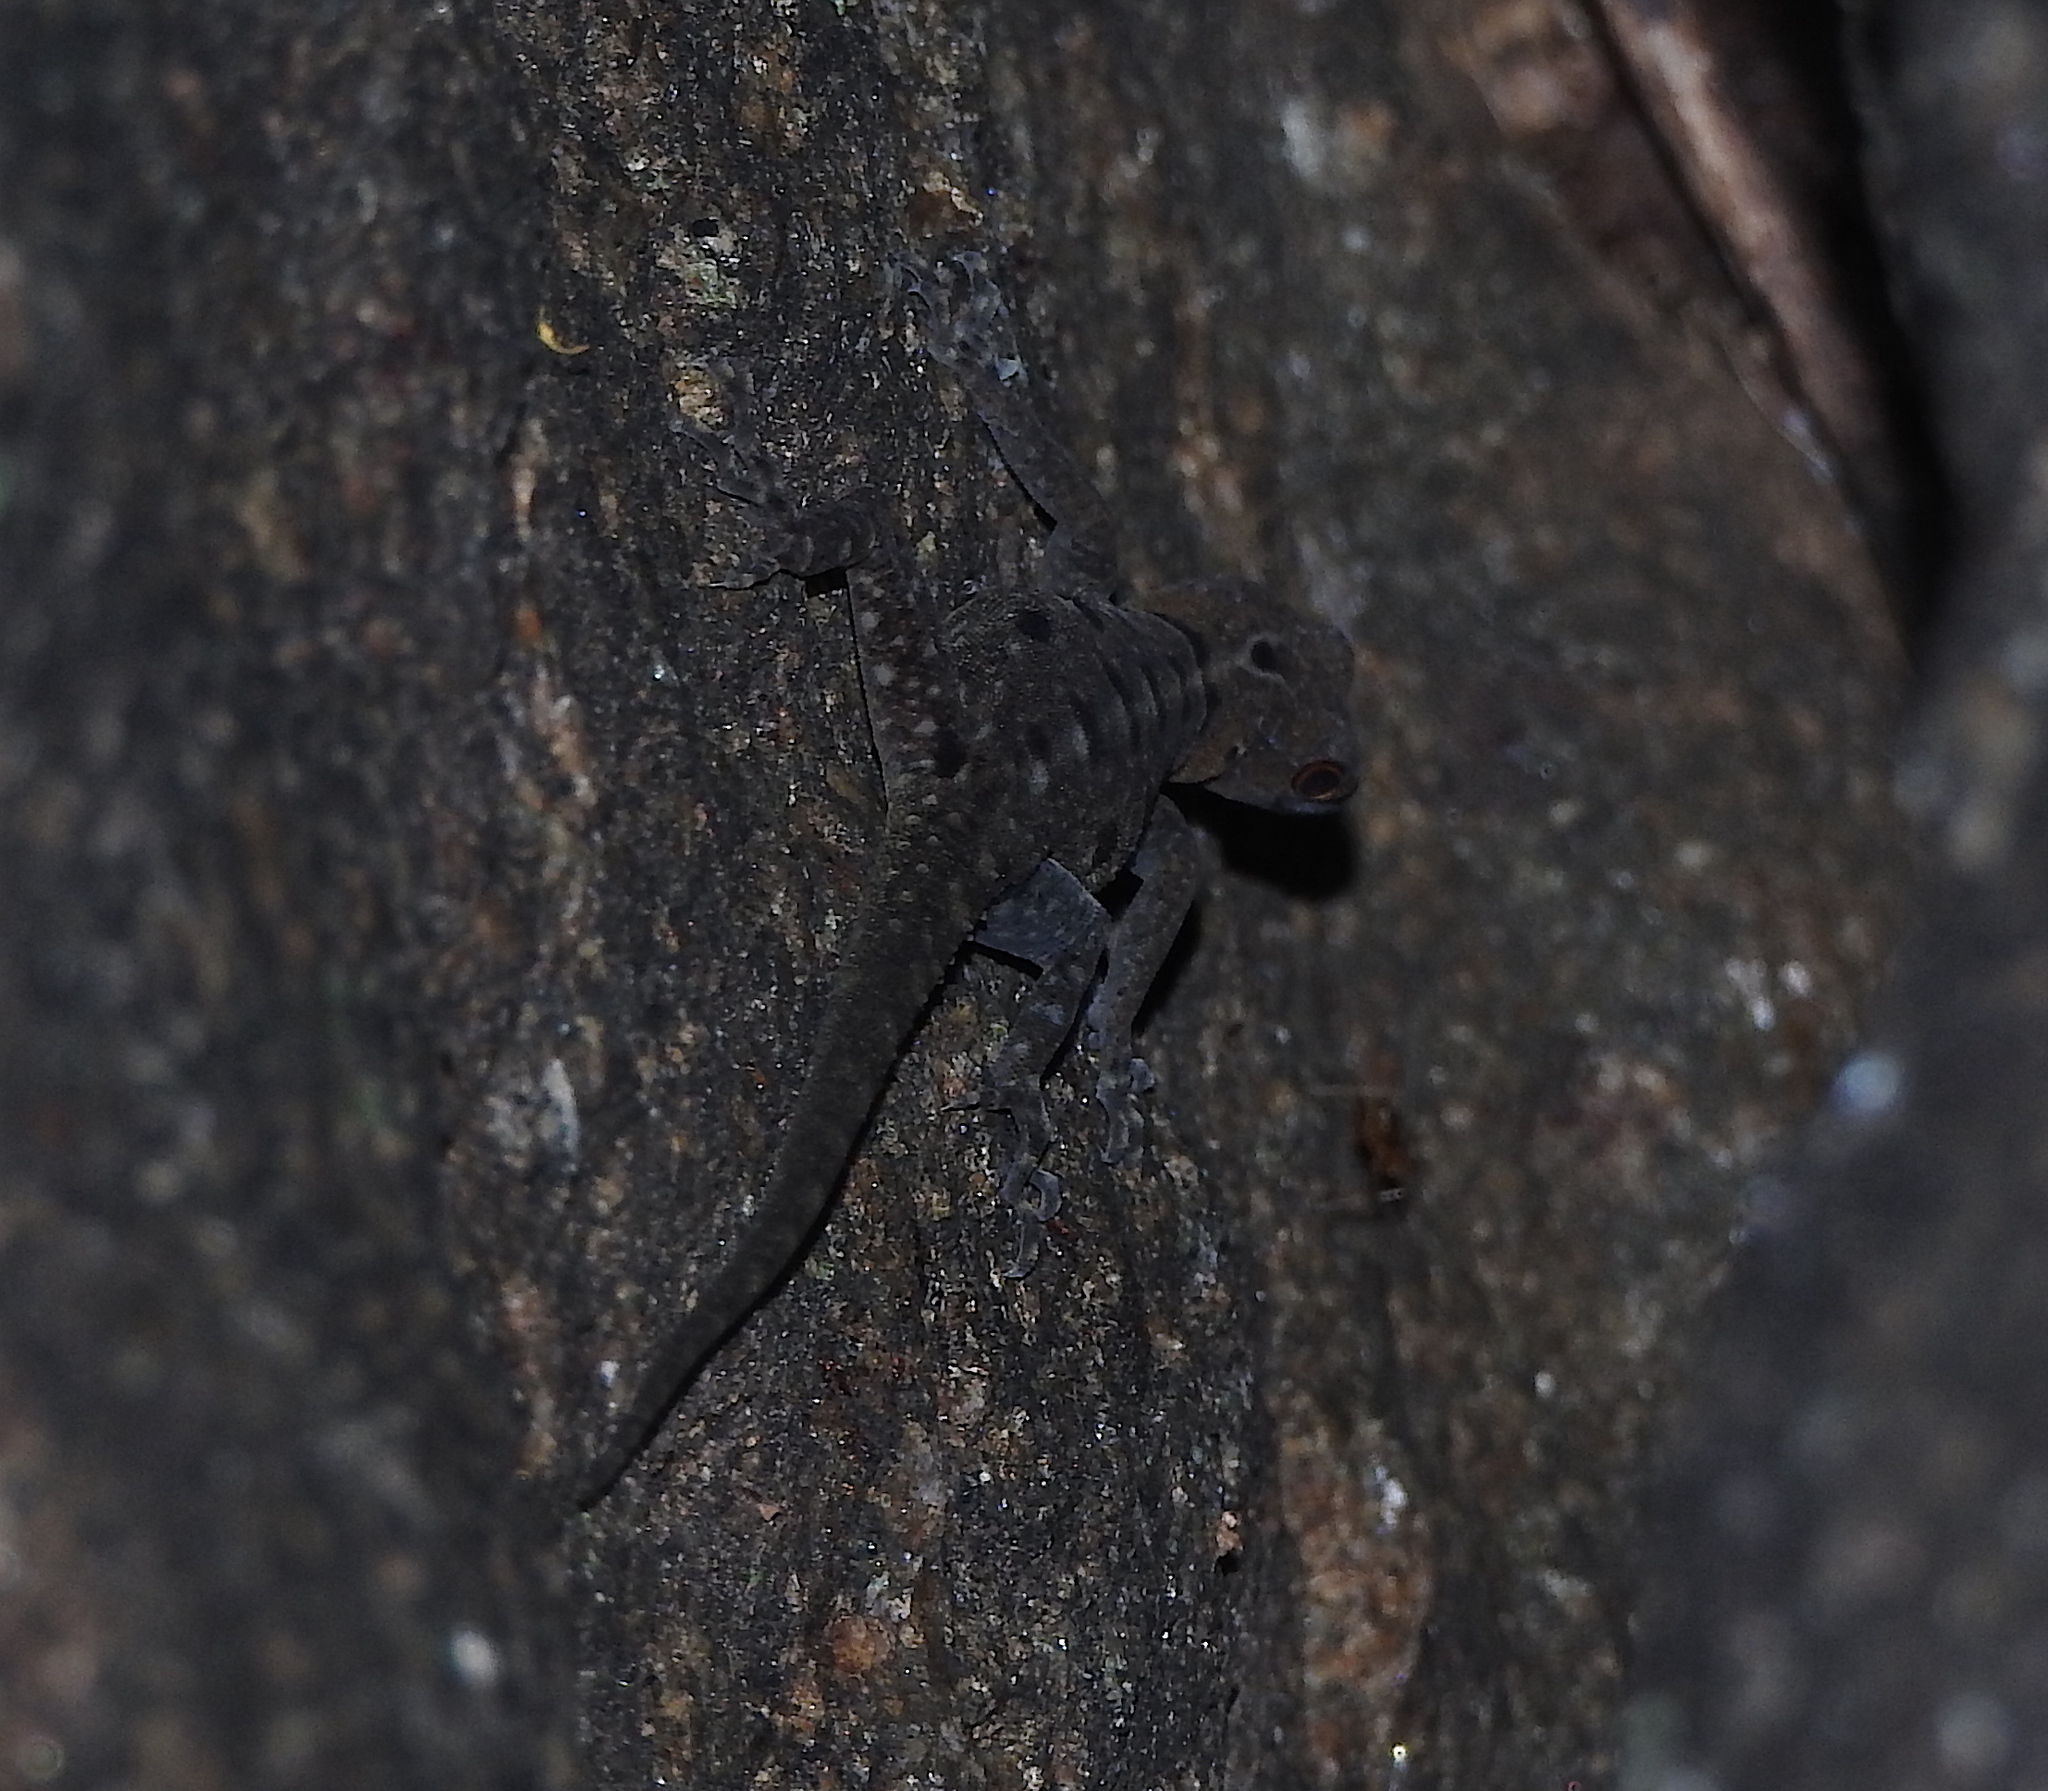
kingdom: Animalia
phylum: Chordata
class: Squamata
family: Gekkonidae
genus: Cnemaspis
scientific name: Cnemaspis azhagu
